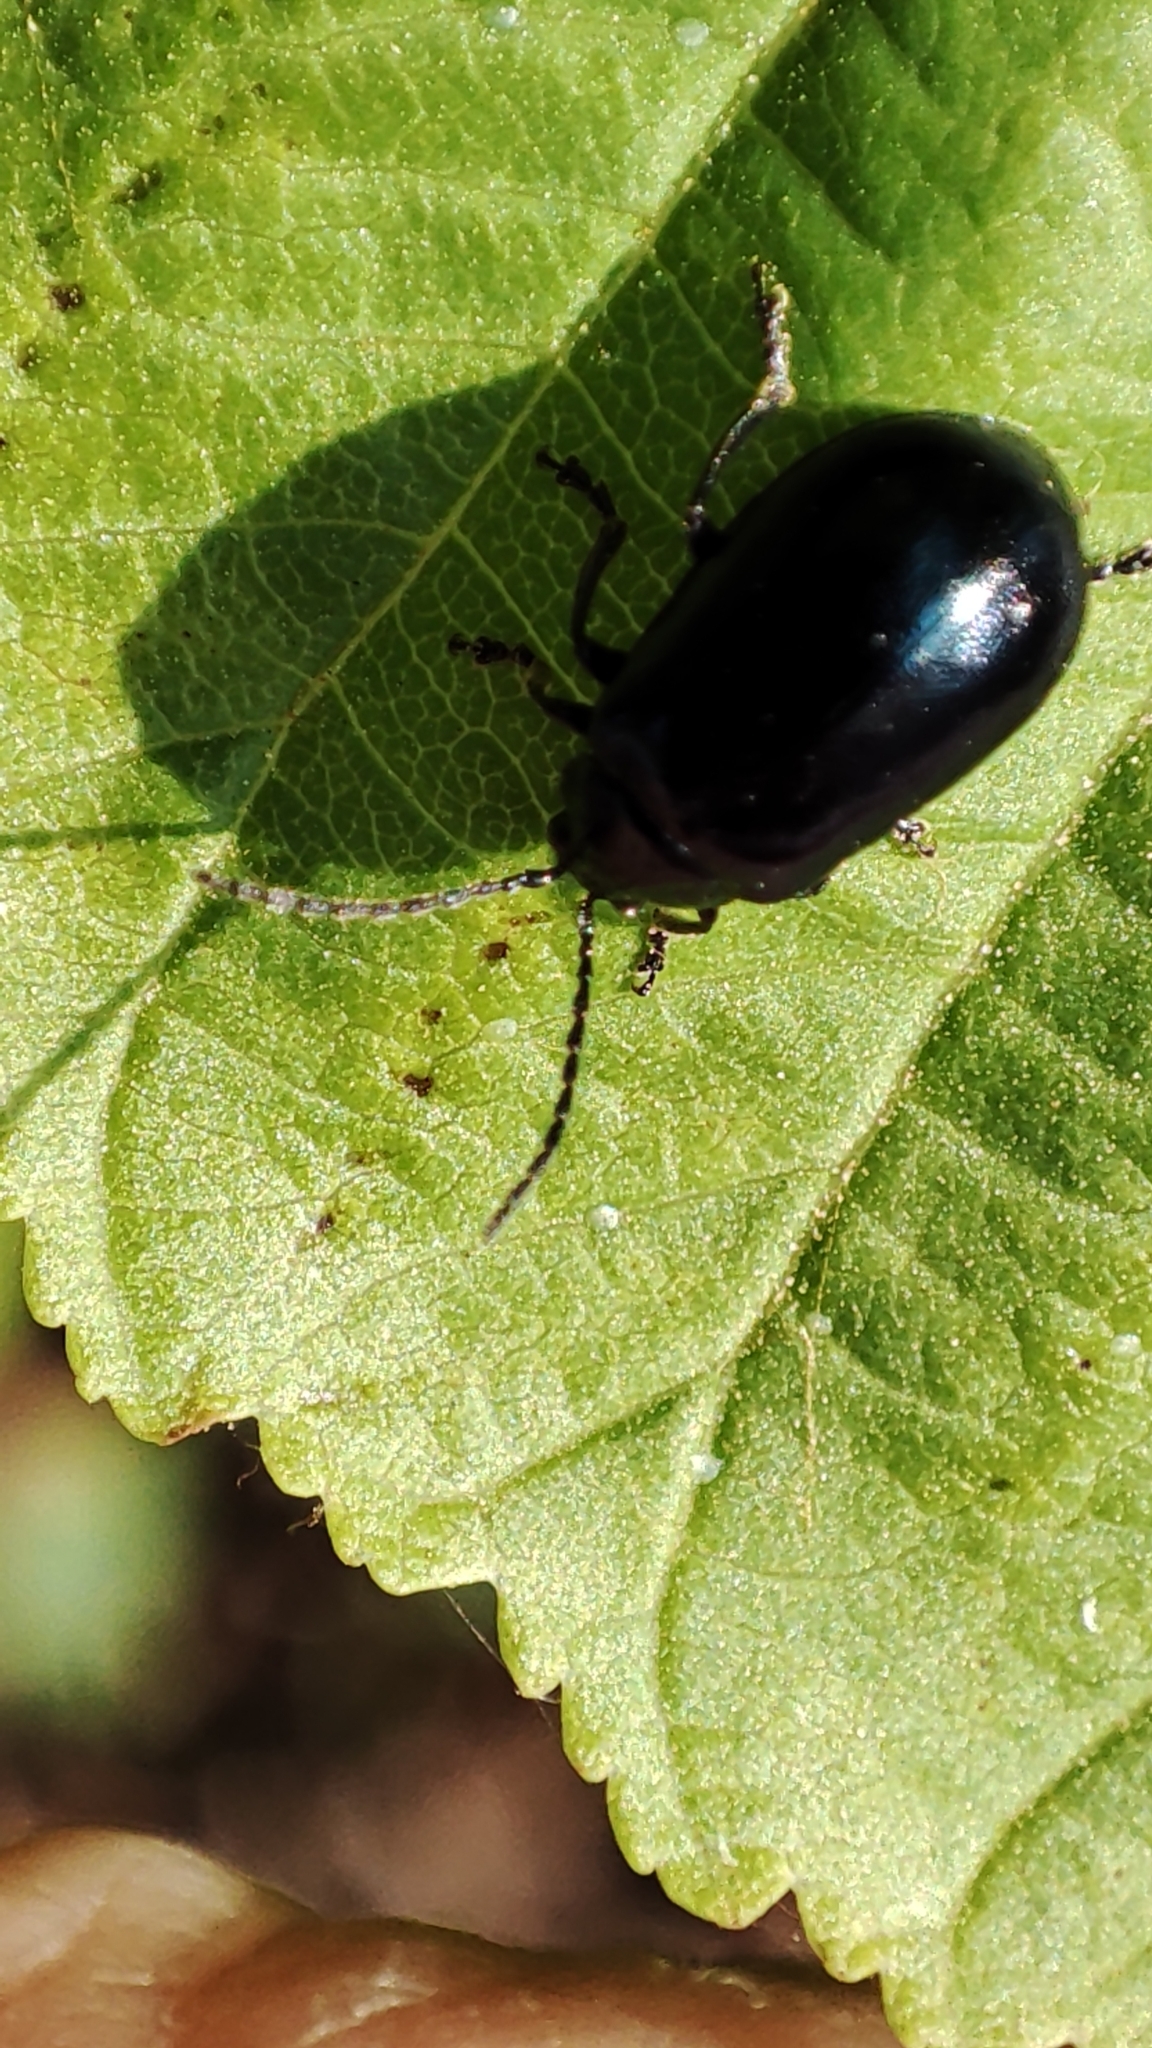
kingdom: Animalia
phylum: Arthropoda
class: Insecta
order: Coleoptera
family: Chrysomelidae
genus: Agelastica
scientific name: Agelastica alni
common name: Alder leaf beetle
